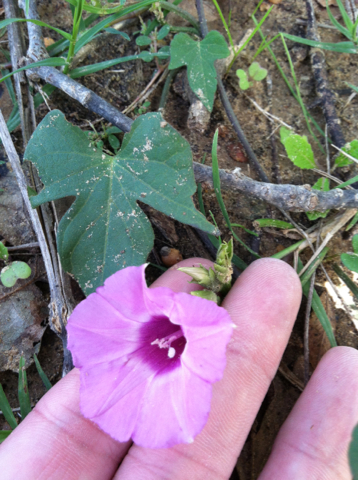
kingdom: Plantae
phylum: Tracheophyta
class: Magnoliopsida
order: Solanales
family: Convolvulaceae
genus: Ipomoea
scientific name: Ipomoea cordatotriloba
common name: Cotton morning glory
